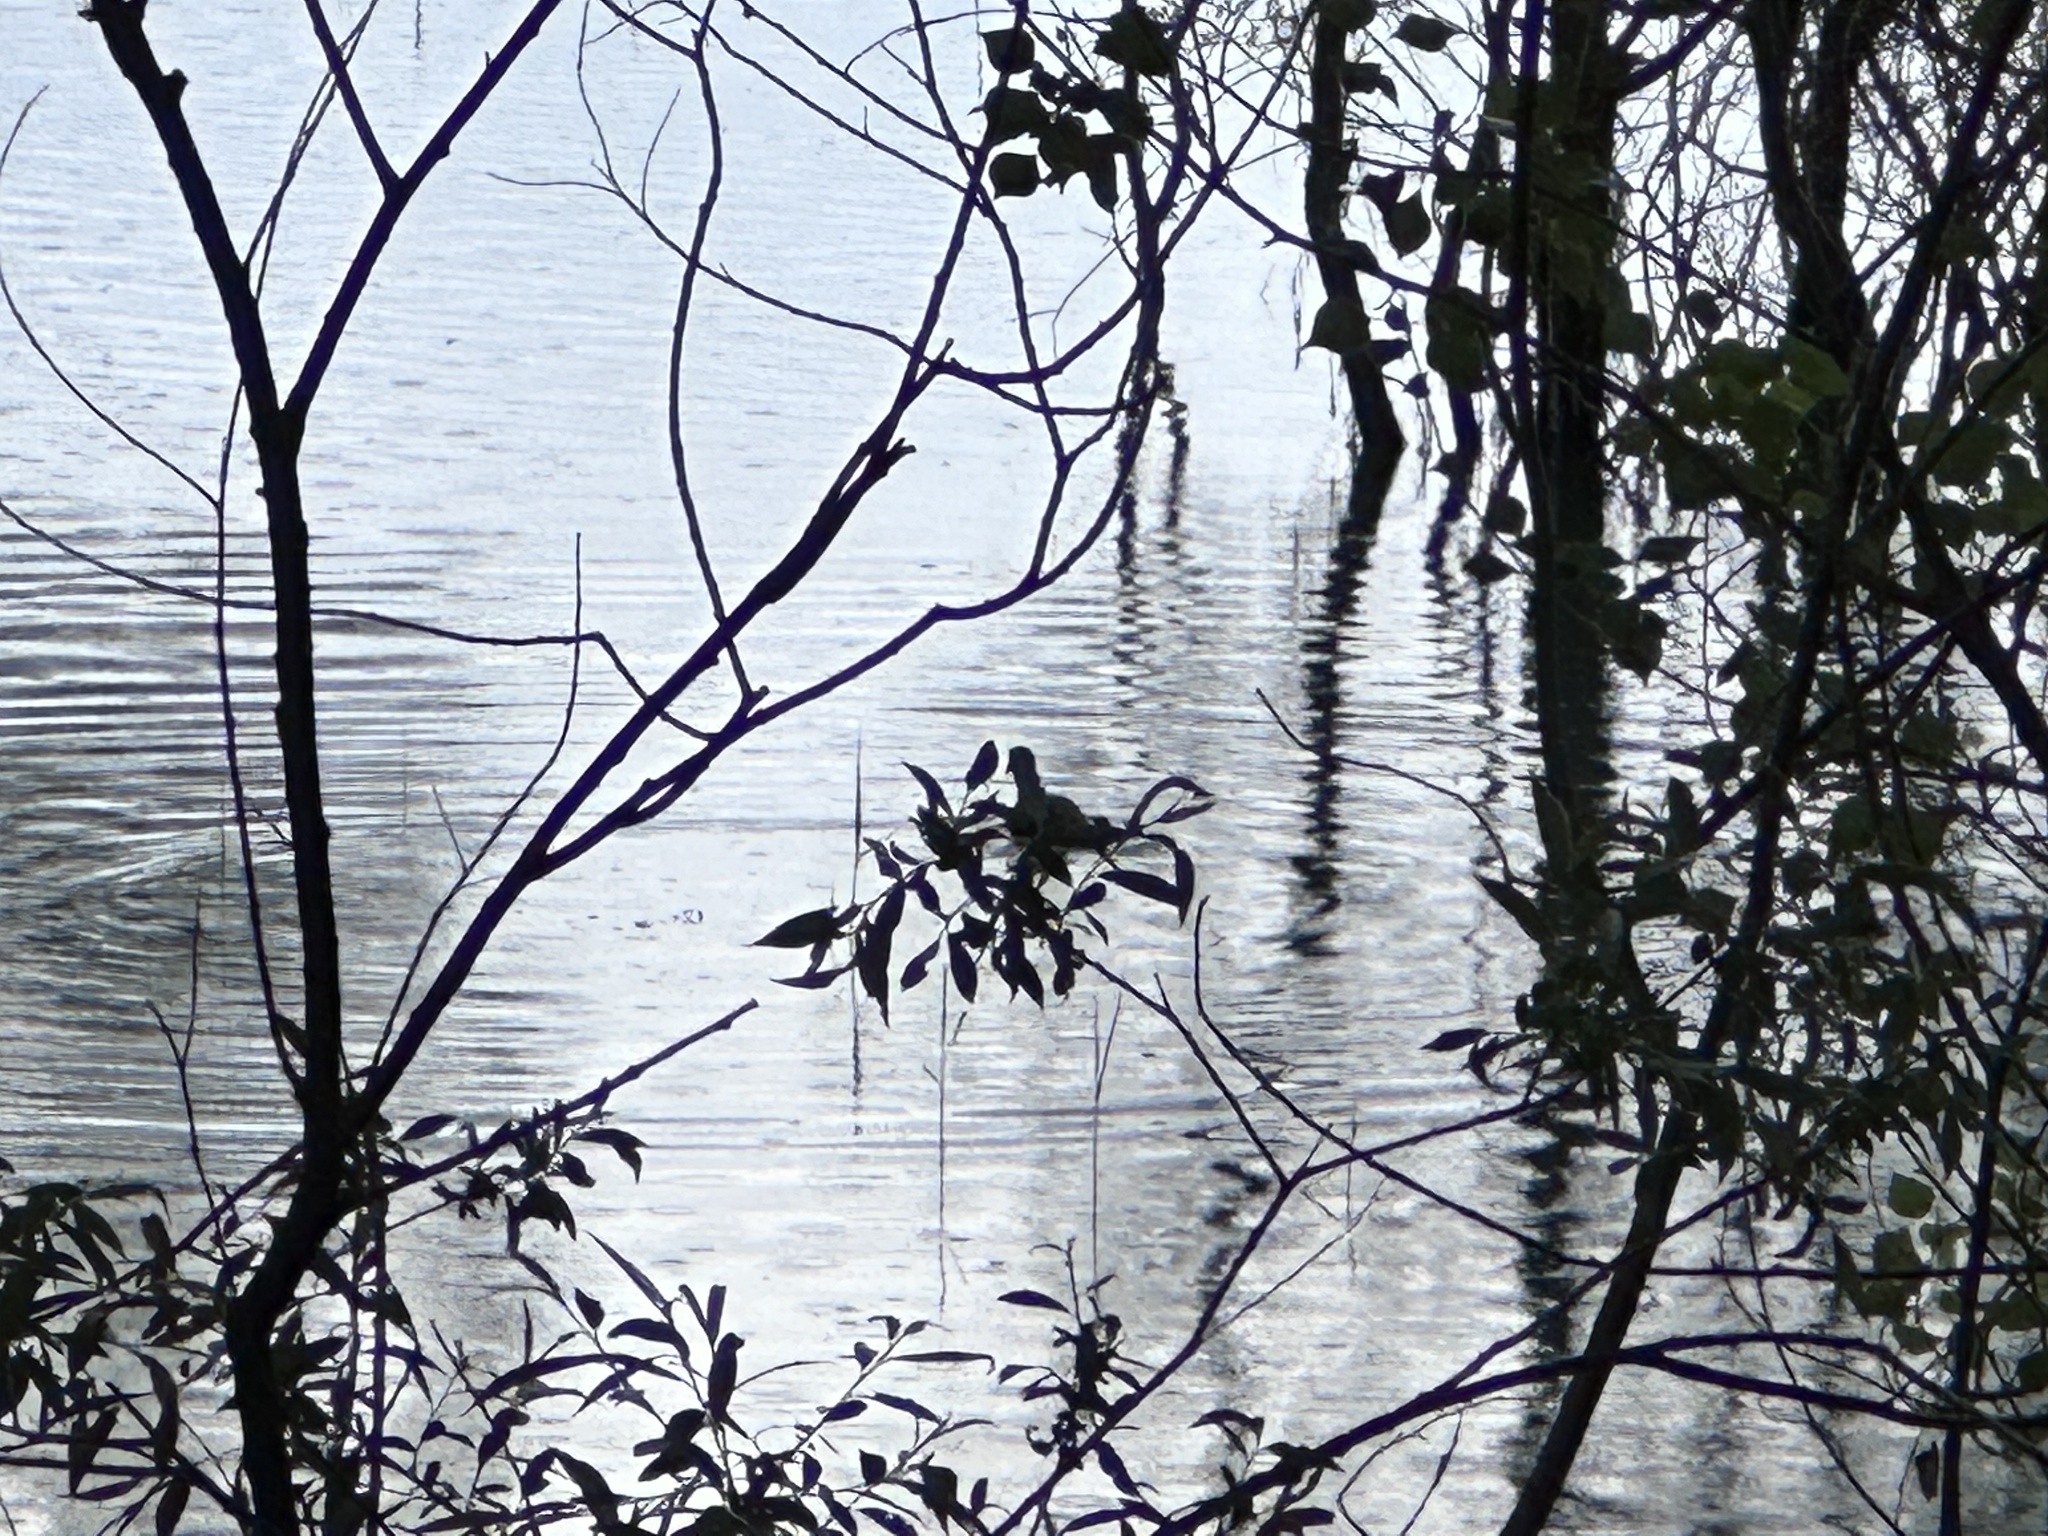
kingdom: Animalia
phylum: Chordata
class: Aves
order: Gruiformes
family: Rallidae
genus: Fulica
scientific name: Fulica atra
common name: Eurasian coot
